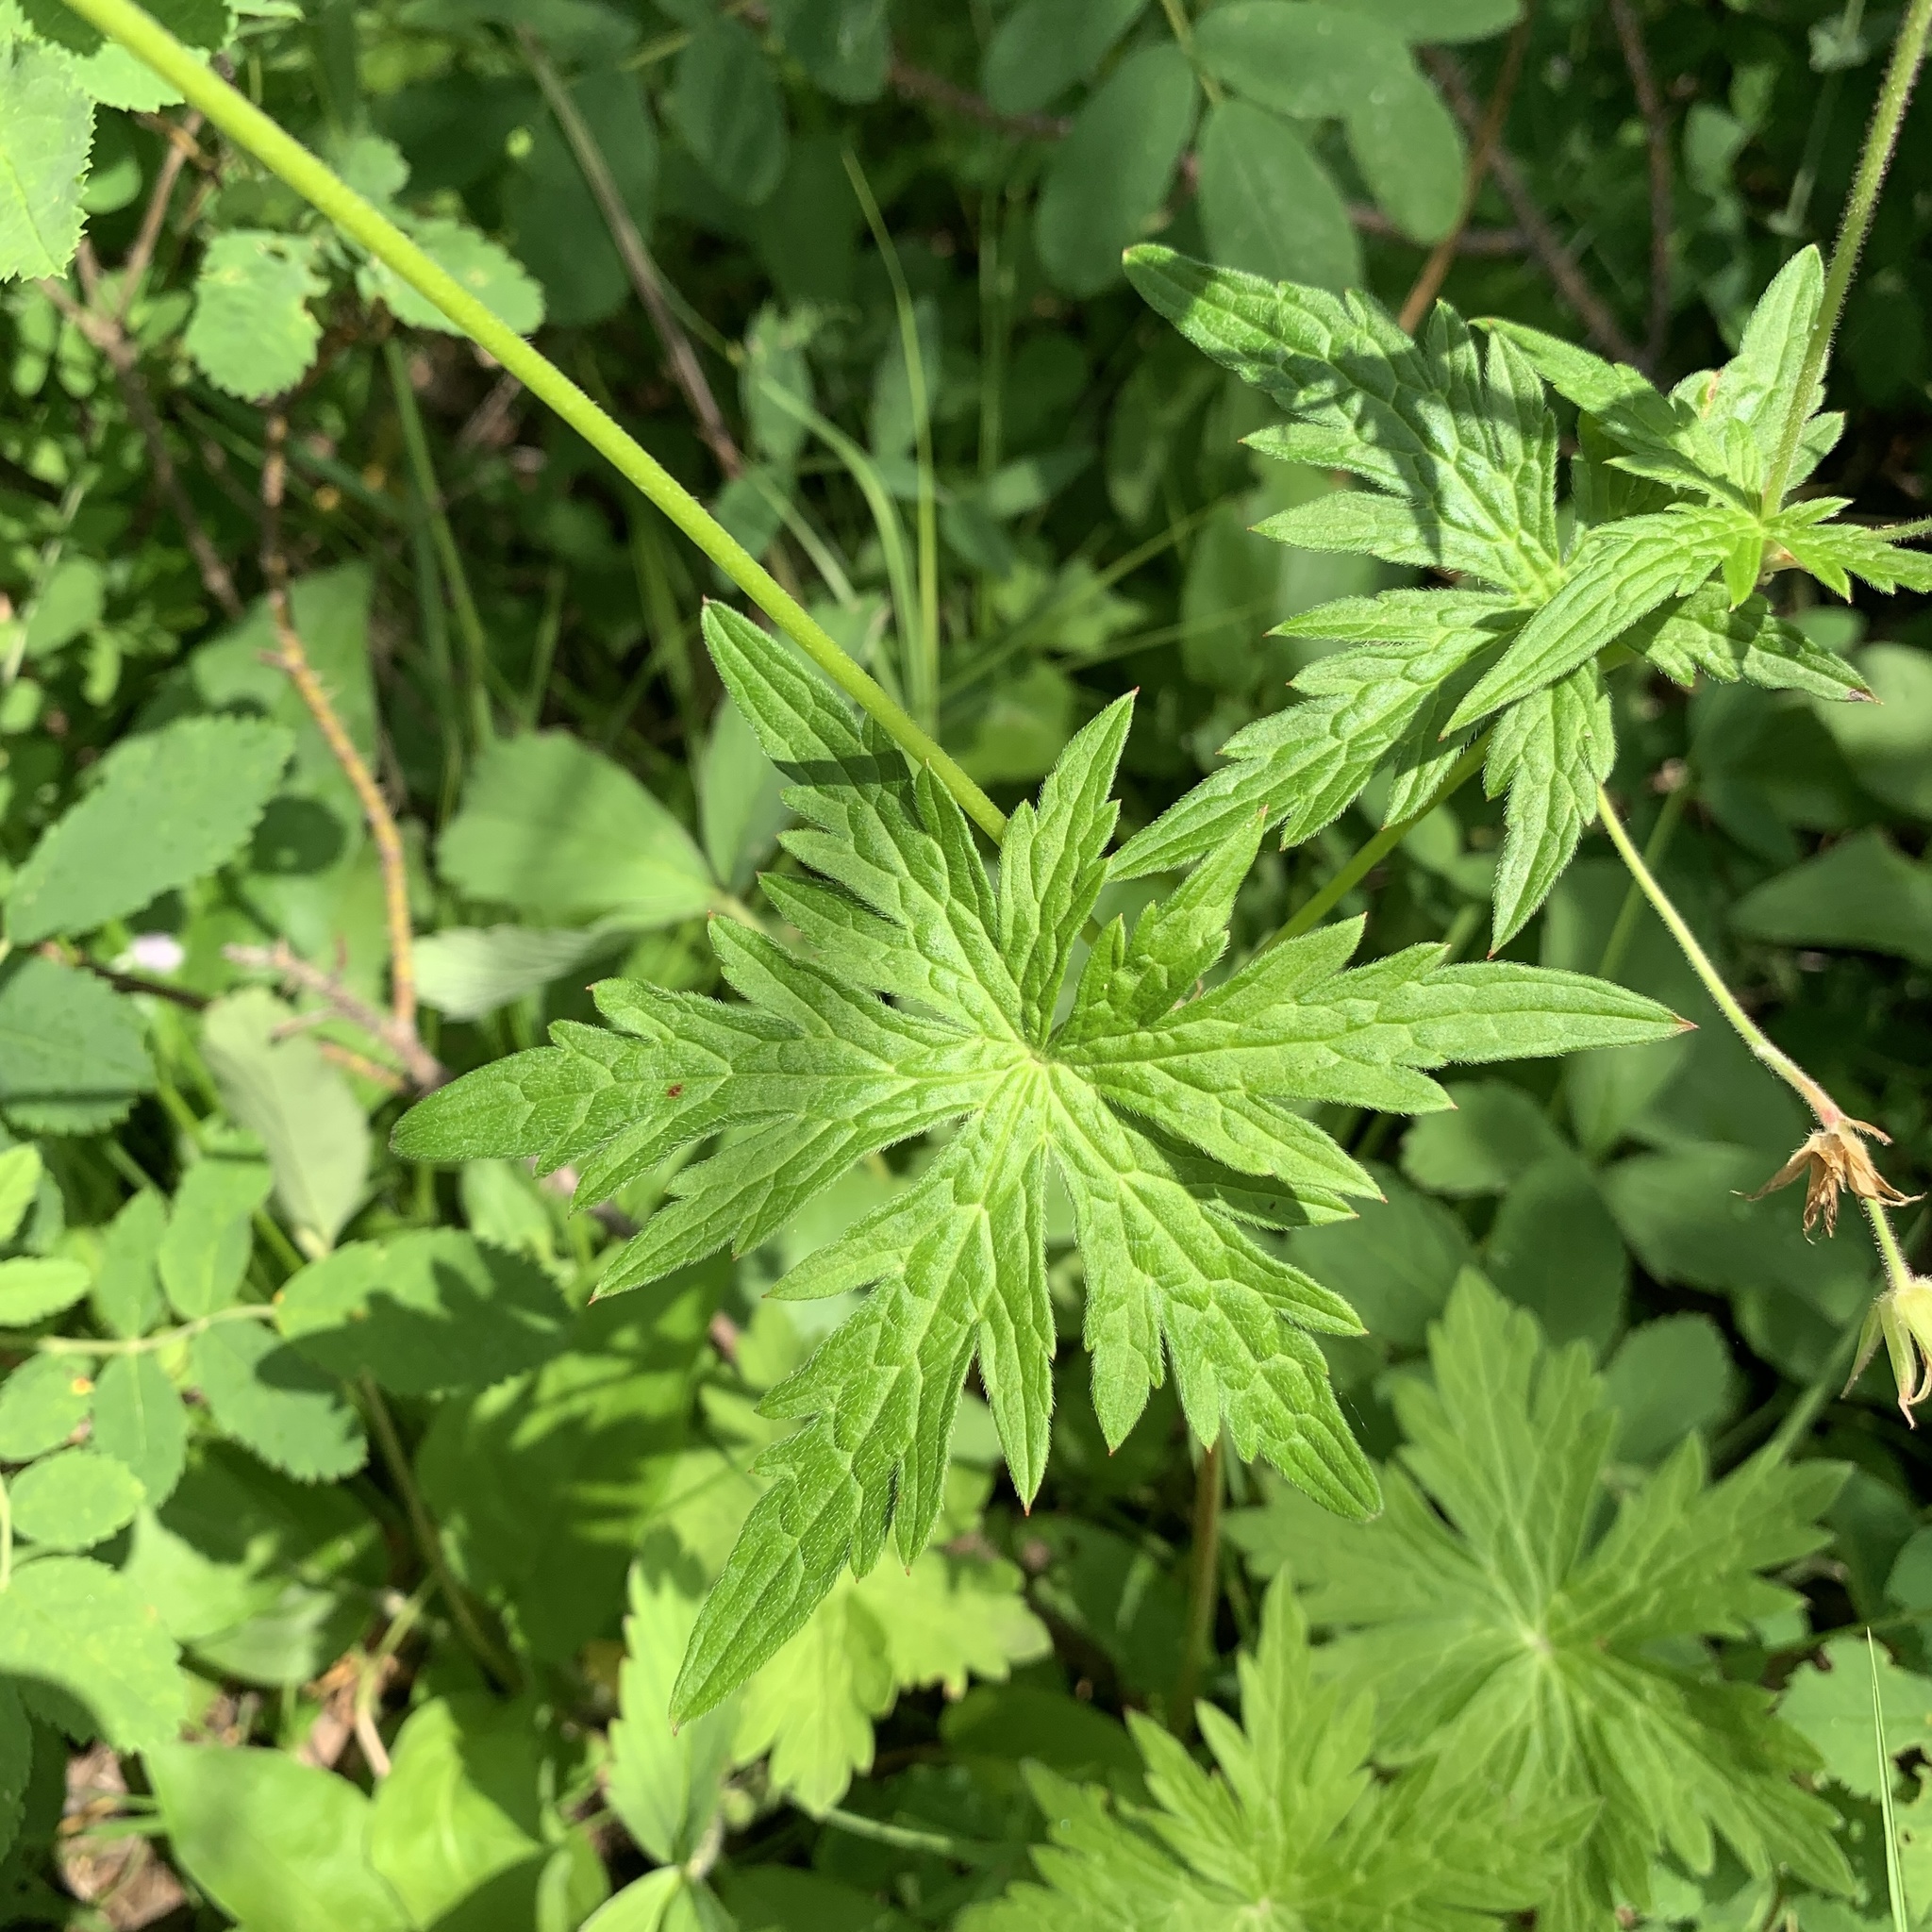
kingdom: Plantae
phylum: Tracheophyta
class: Magnoliopsida
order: Geraniales
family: Geraniaceae
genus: Geranium
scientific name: Geranium richardsonii
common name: Richardson's crane's-bill
